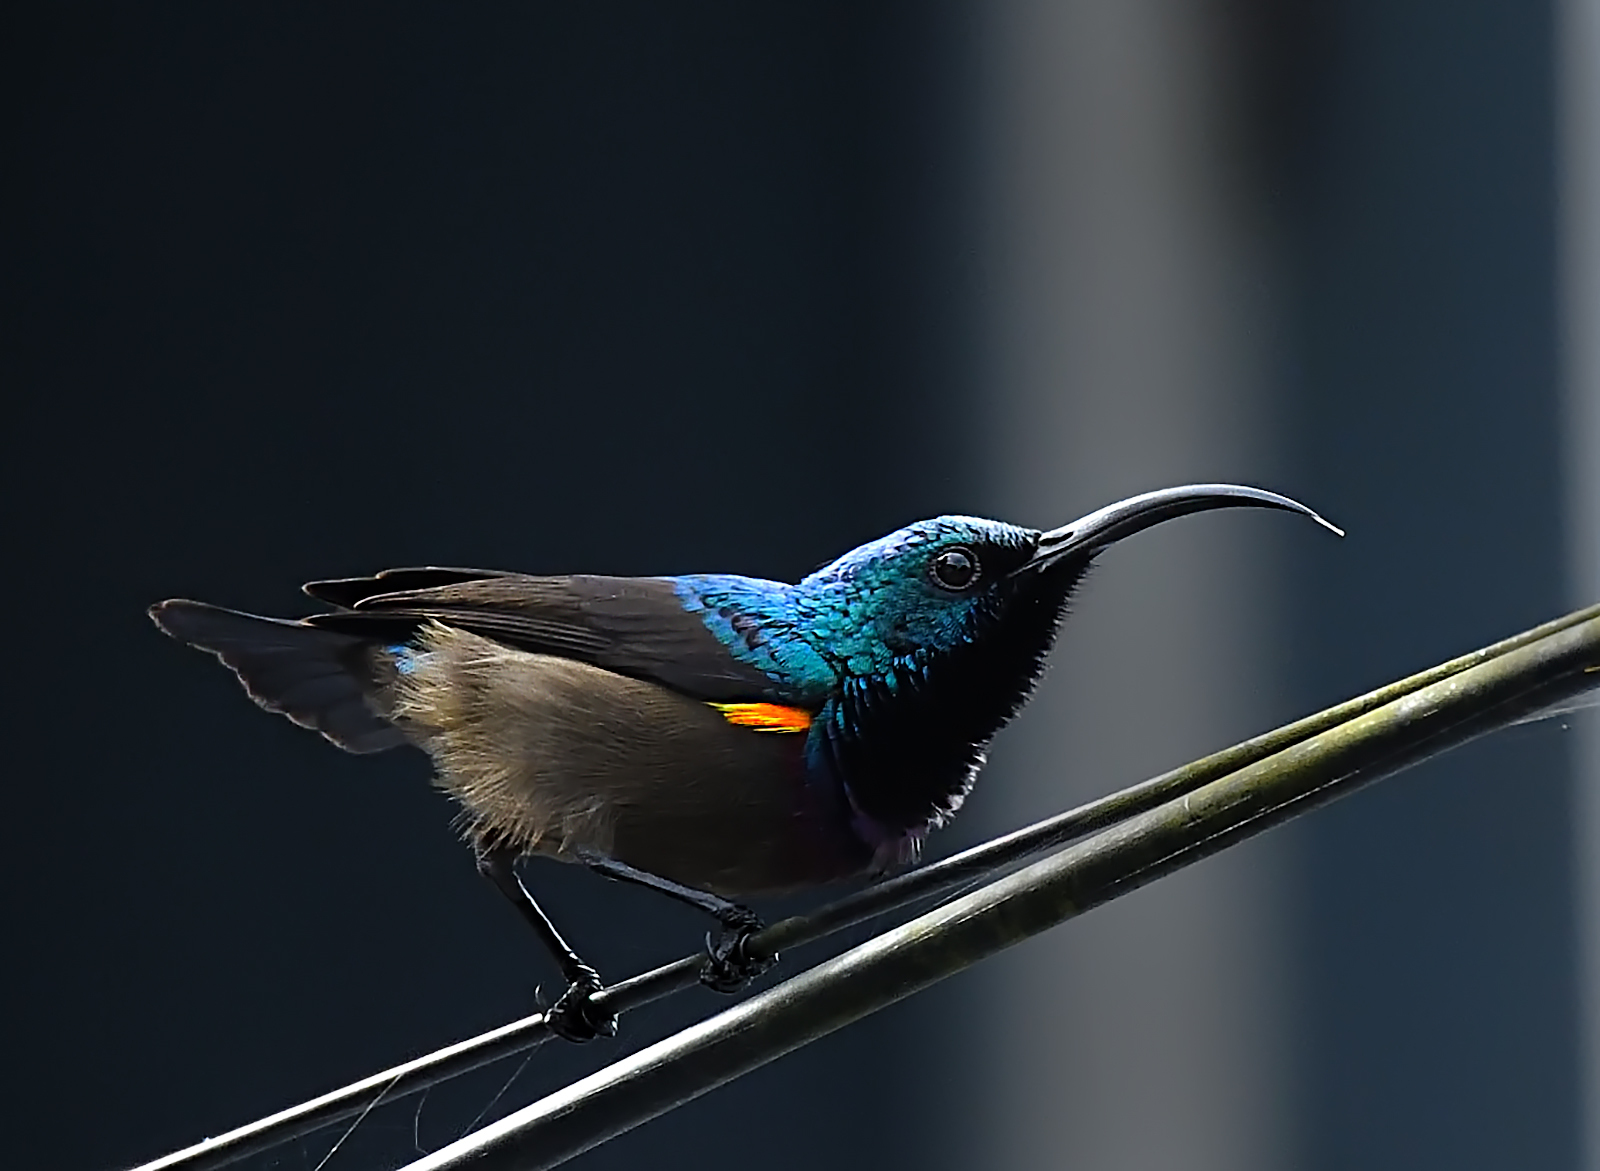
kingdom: Animalia
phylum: Chordata
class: Aves
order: Passeriformes
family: Nectariniidae
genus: Cinnyris
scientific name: Cinnyris lotenius
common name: Loten's sunbird
